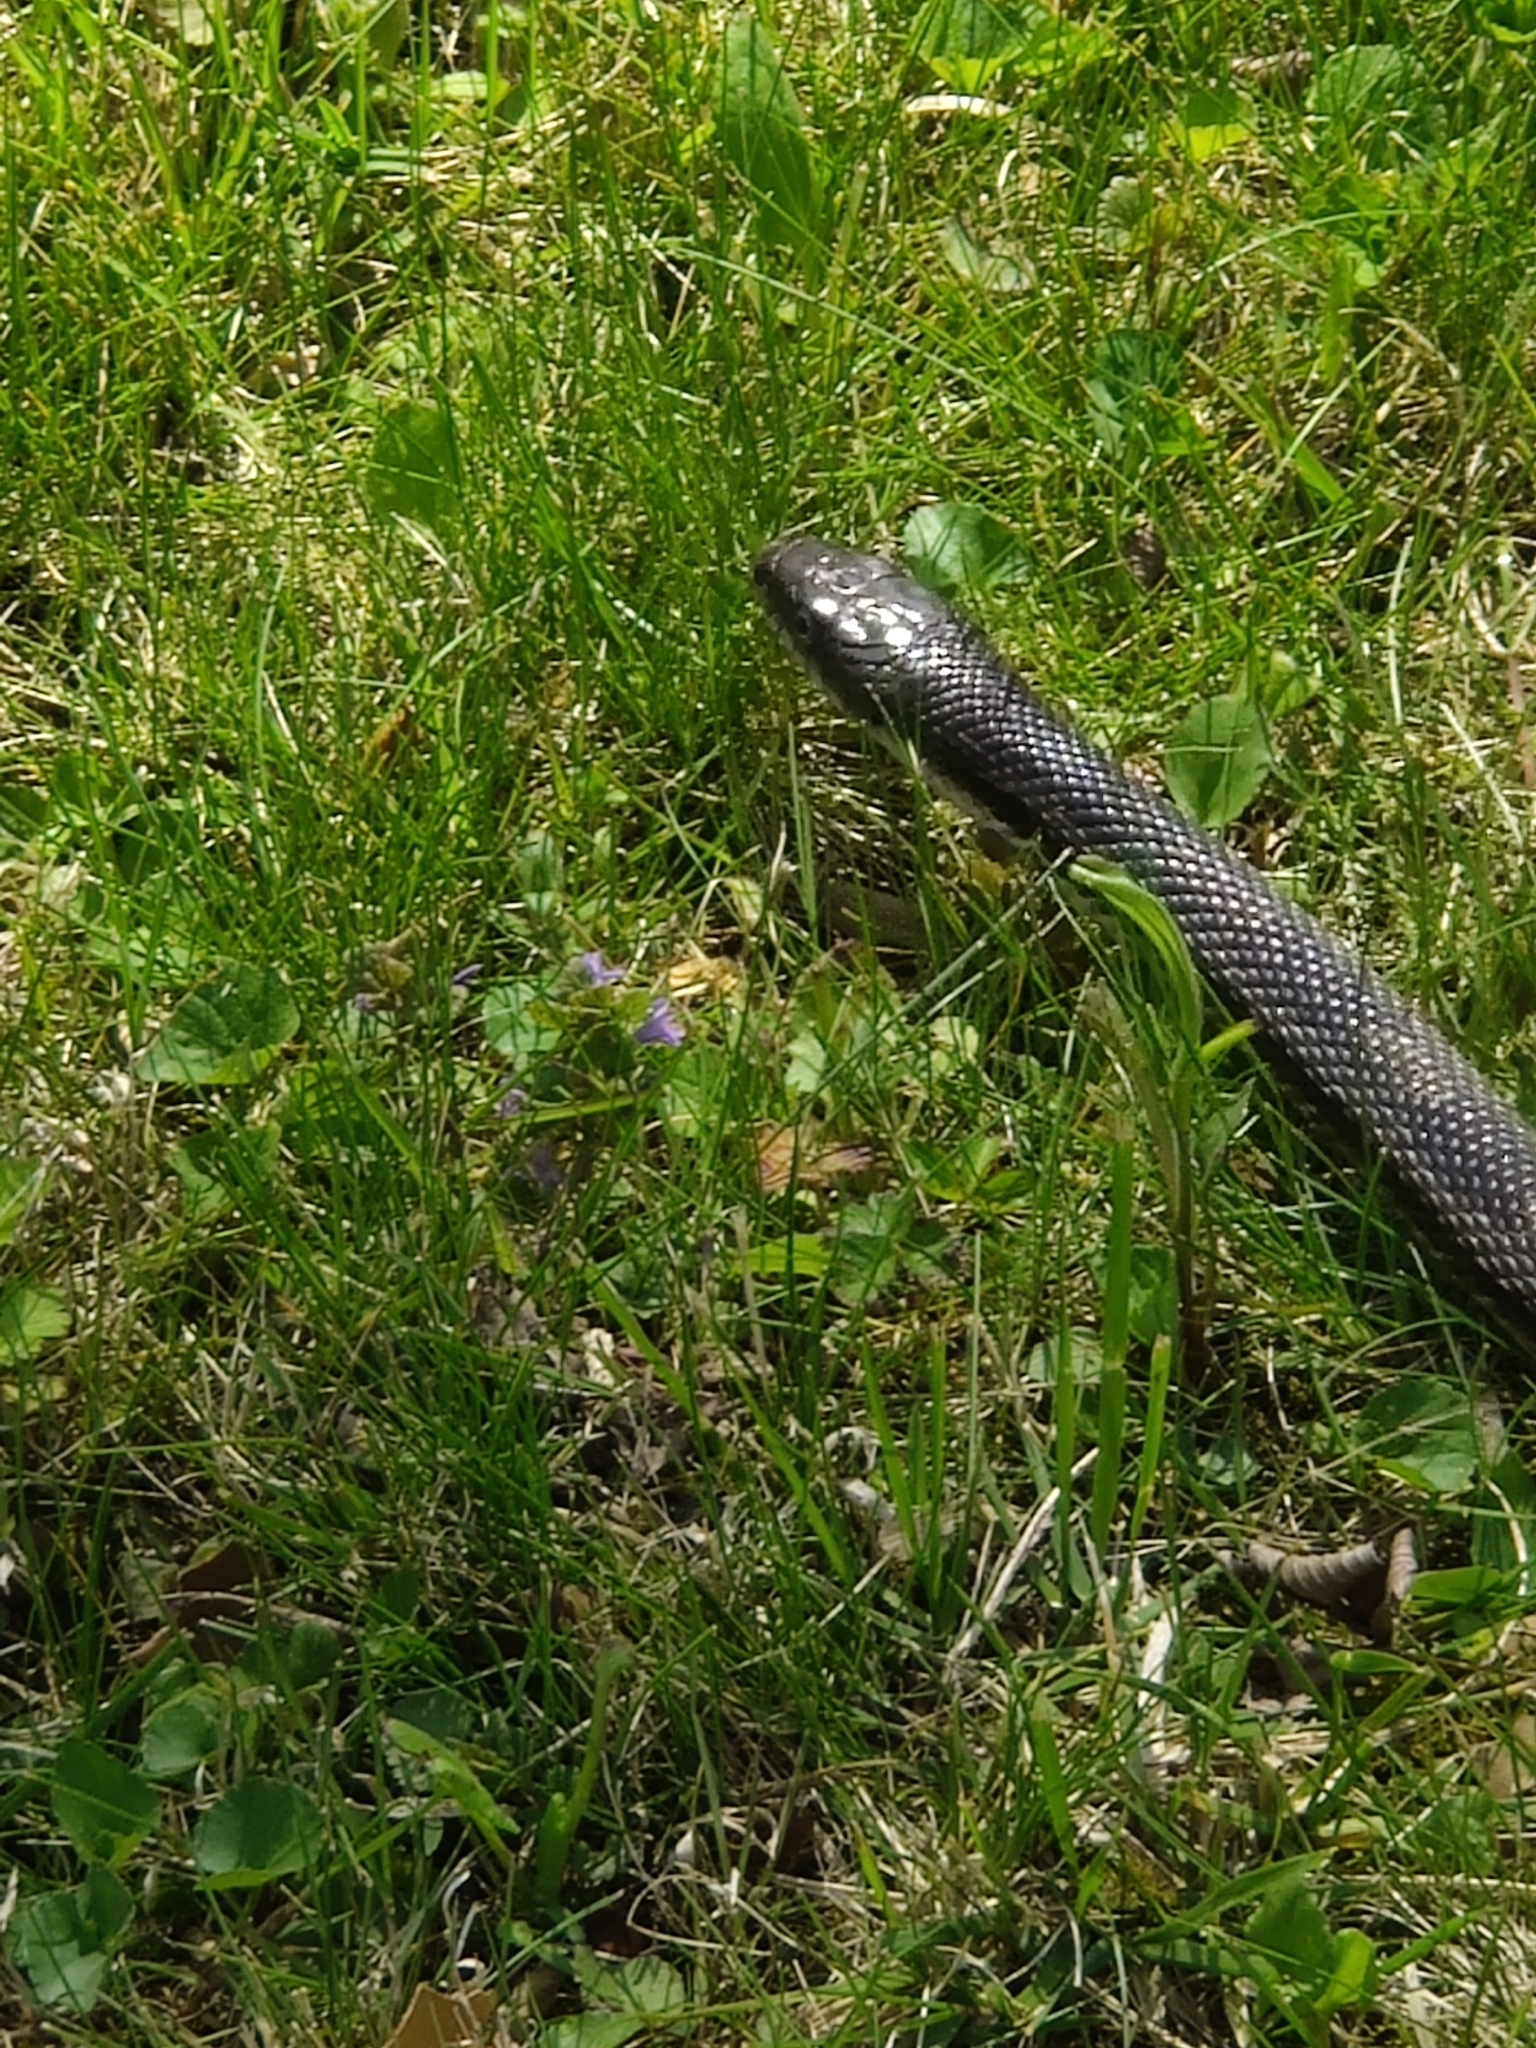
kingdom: Animalia
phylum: Chordata
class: Squamata
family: Colubridae
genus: Pantherophis
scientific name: Pantherophis spiloides
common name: Gray rat snake
